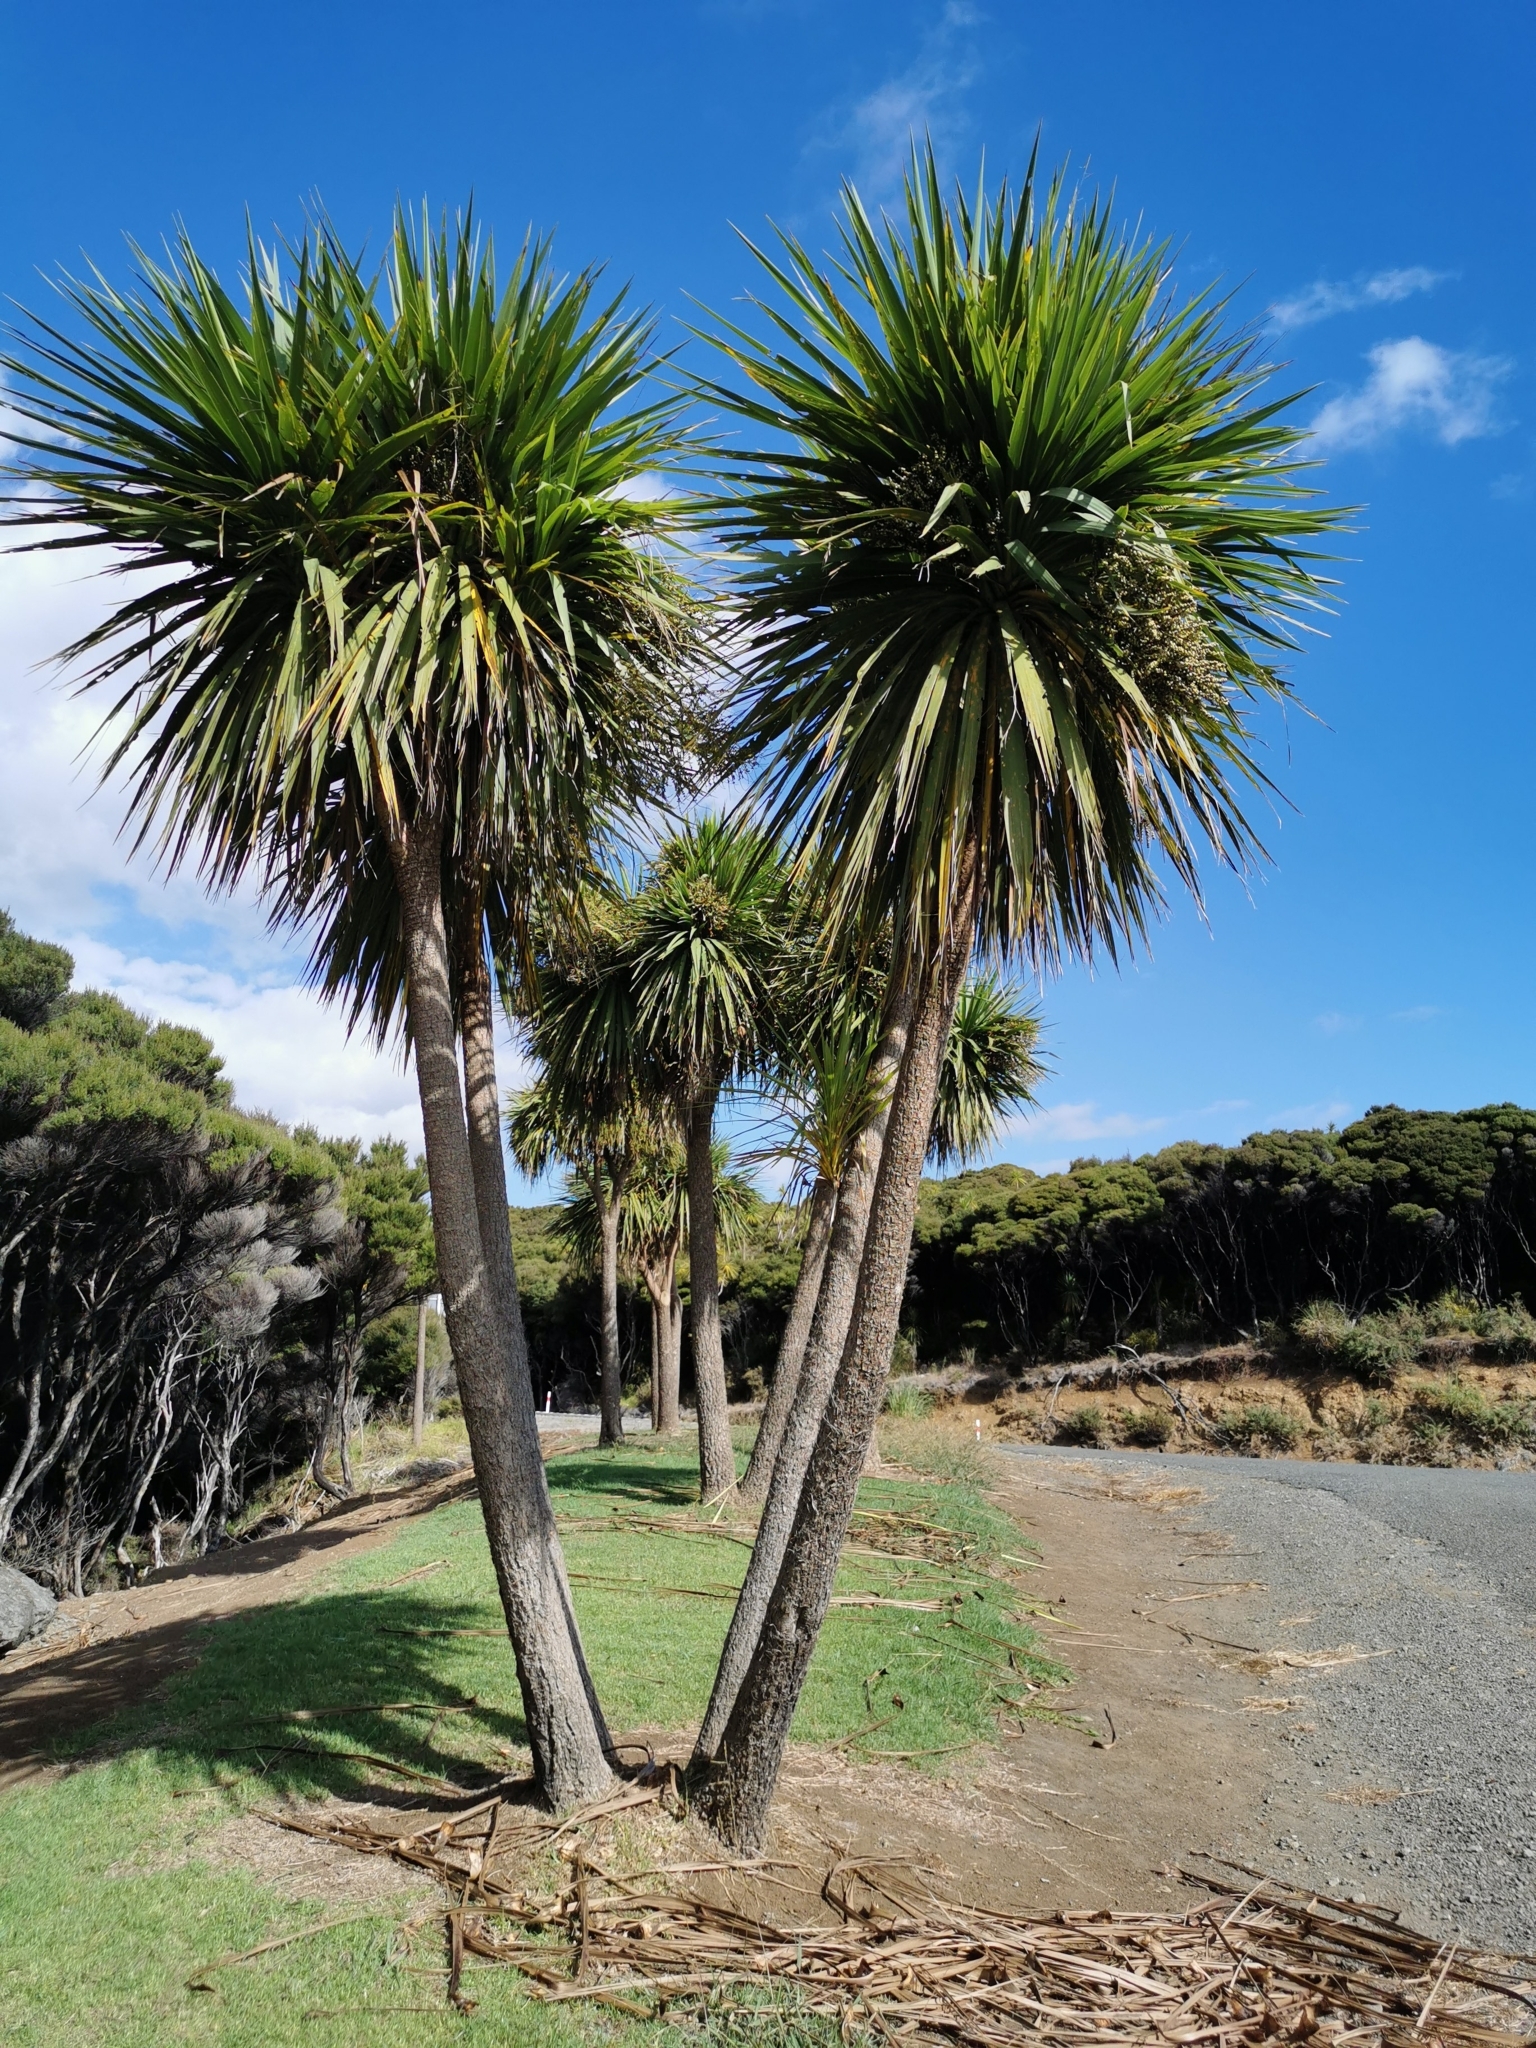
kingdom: Plantae
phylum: Tracheophyta
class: Liliopsida
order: Asparagales
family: Asparagaceae
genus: Cordyline
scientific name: Cordyline australis
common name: Cabbage-palm
